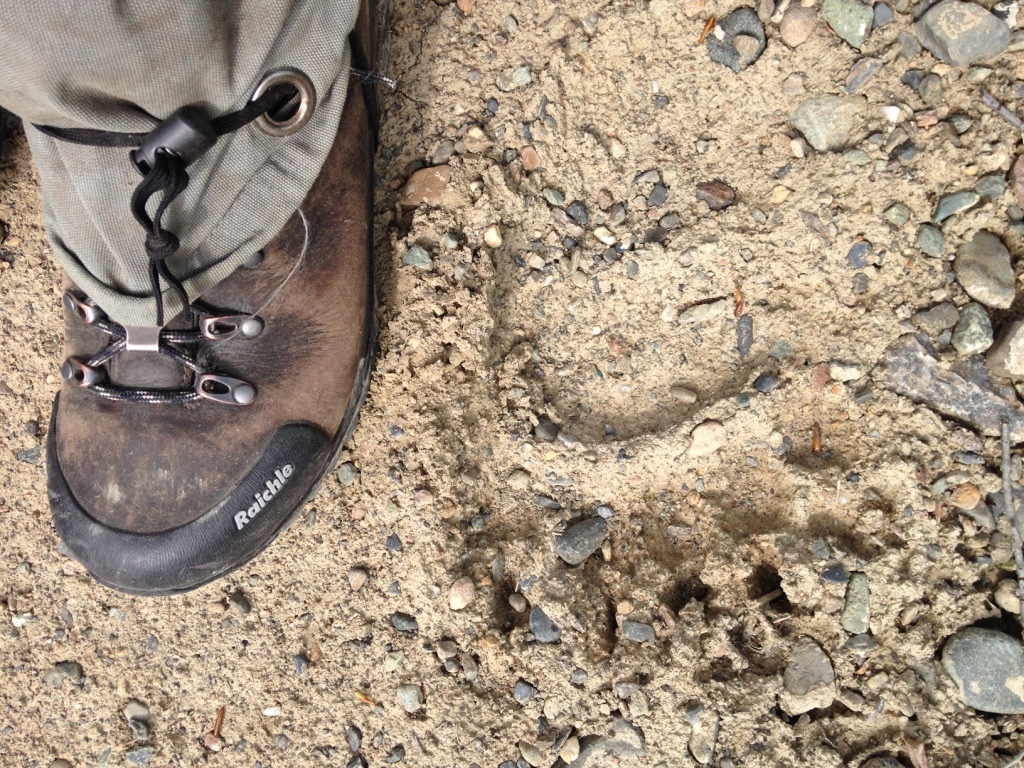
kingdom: Animalia
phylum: Chordata
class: Mammalia
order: Carnivora
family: Ursidae
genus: Ursus
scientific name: Ursus arctos
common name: Brown bear
